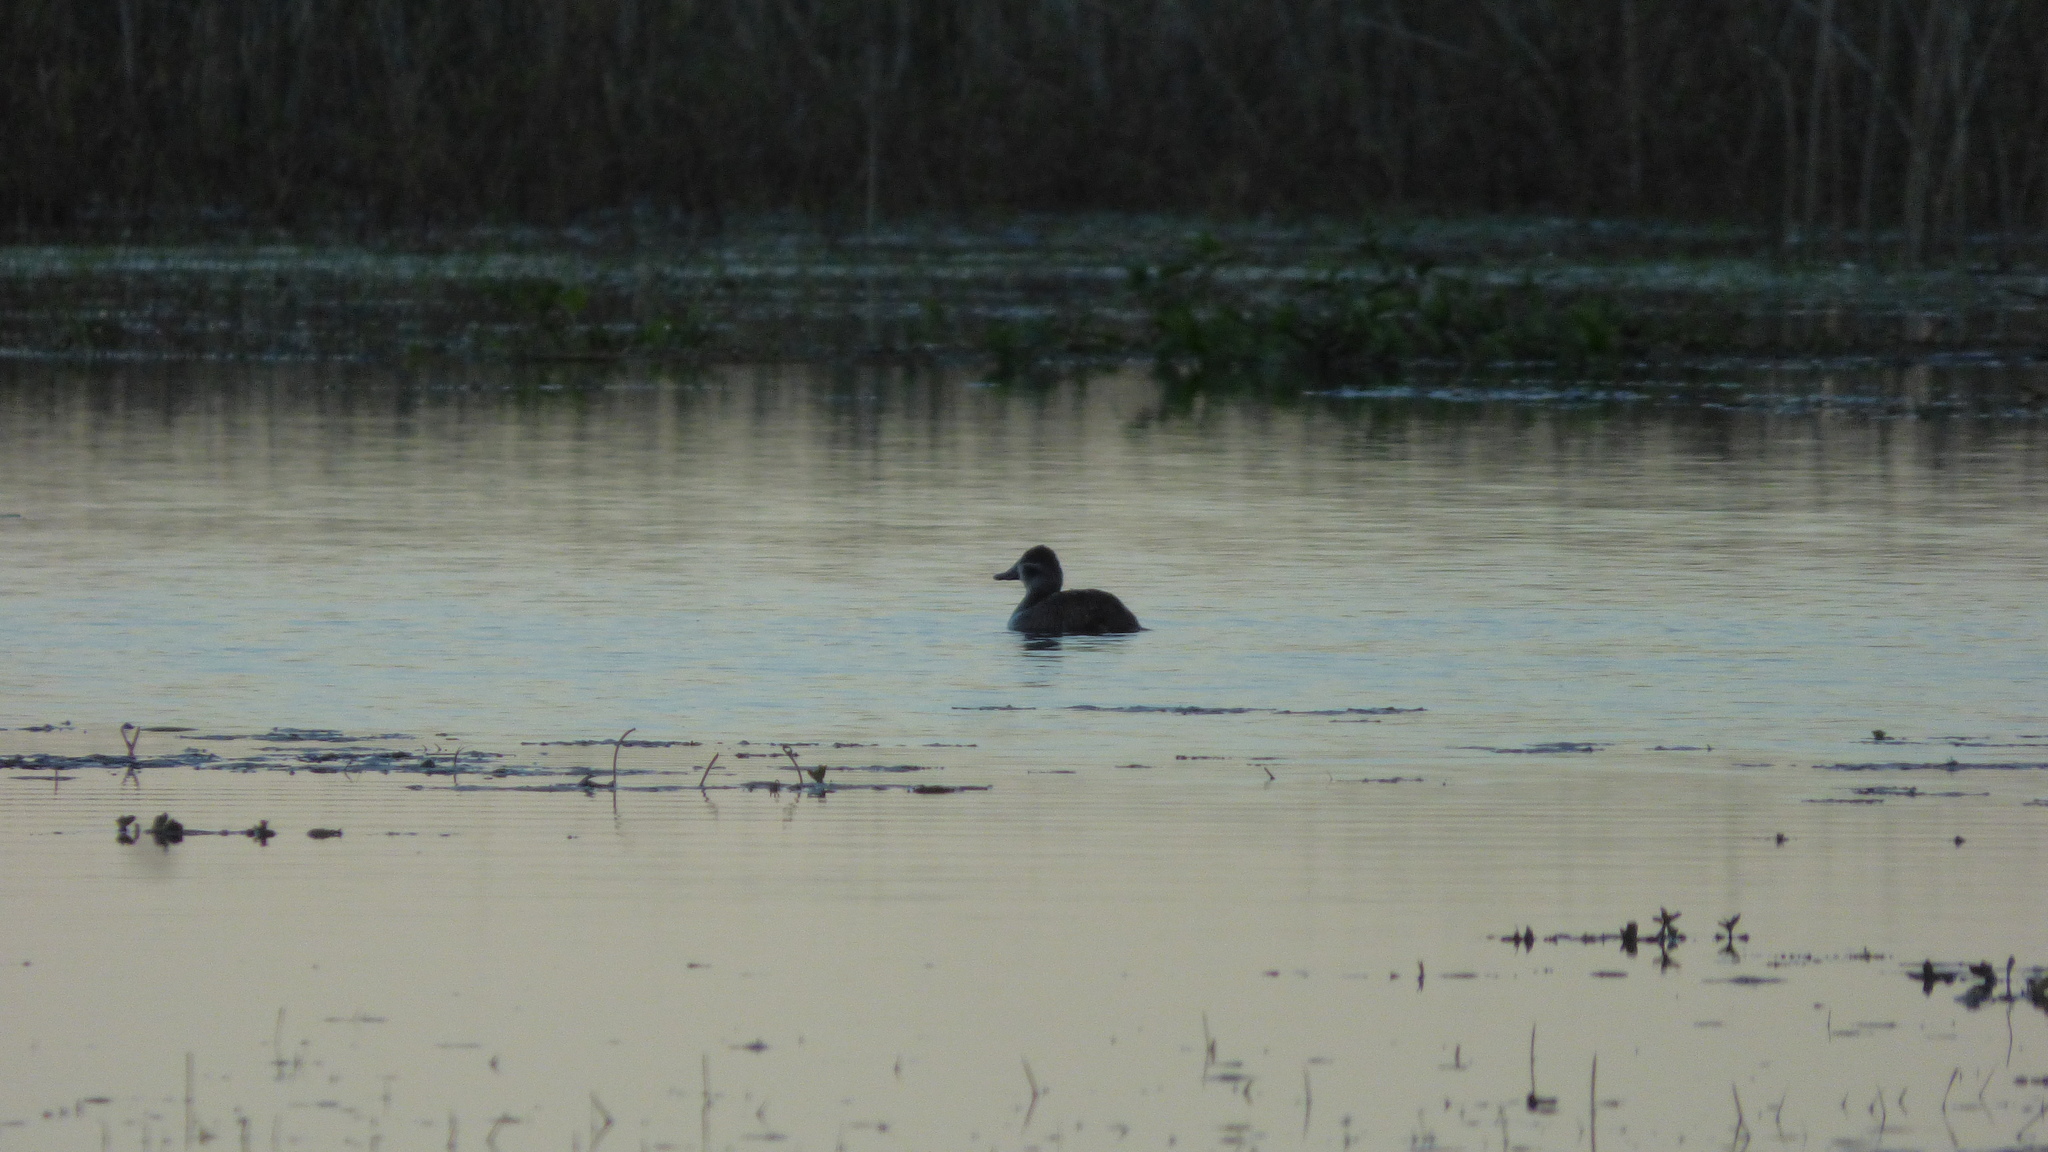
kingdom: Animalia
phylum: Chordata
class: Aves
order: Anseriformes
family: Anatidae
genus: Oxyura
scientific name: Oxyura vittata
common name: Lake duck
